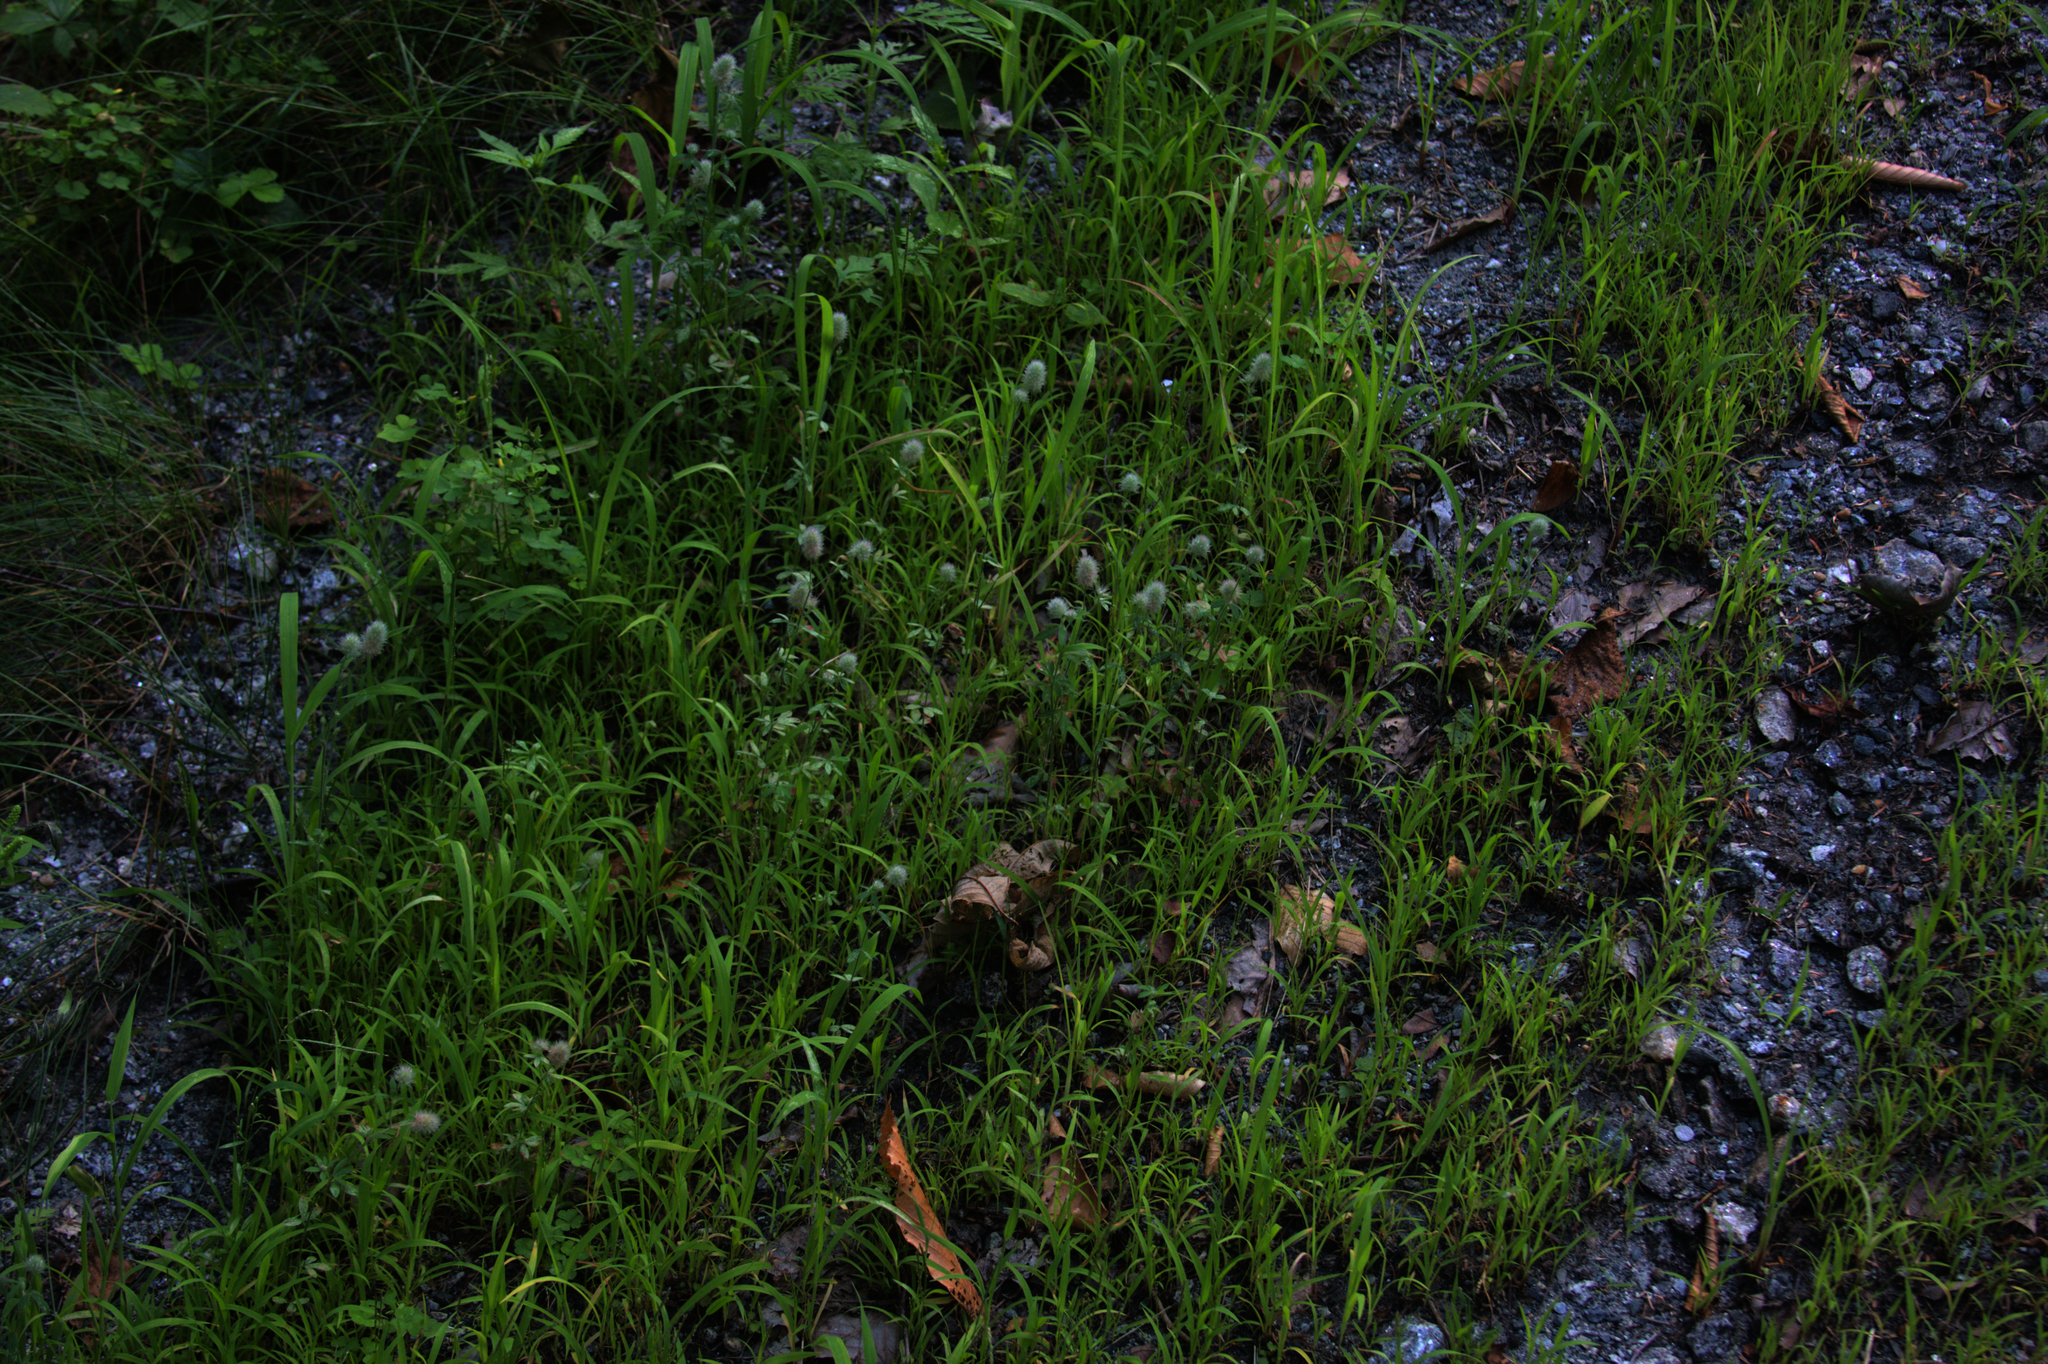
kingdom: Plantae
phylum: Tracheophyta
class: Magnoliopsida
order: Fabales
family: Fabaceae
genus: Trifolium
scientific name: Trifolium arvense
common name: Hare's-foot clover
